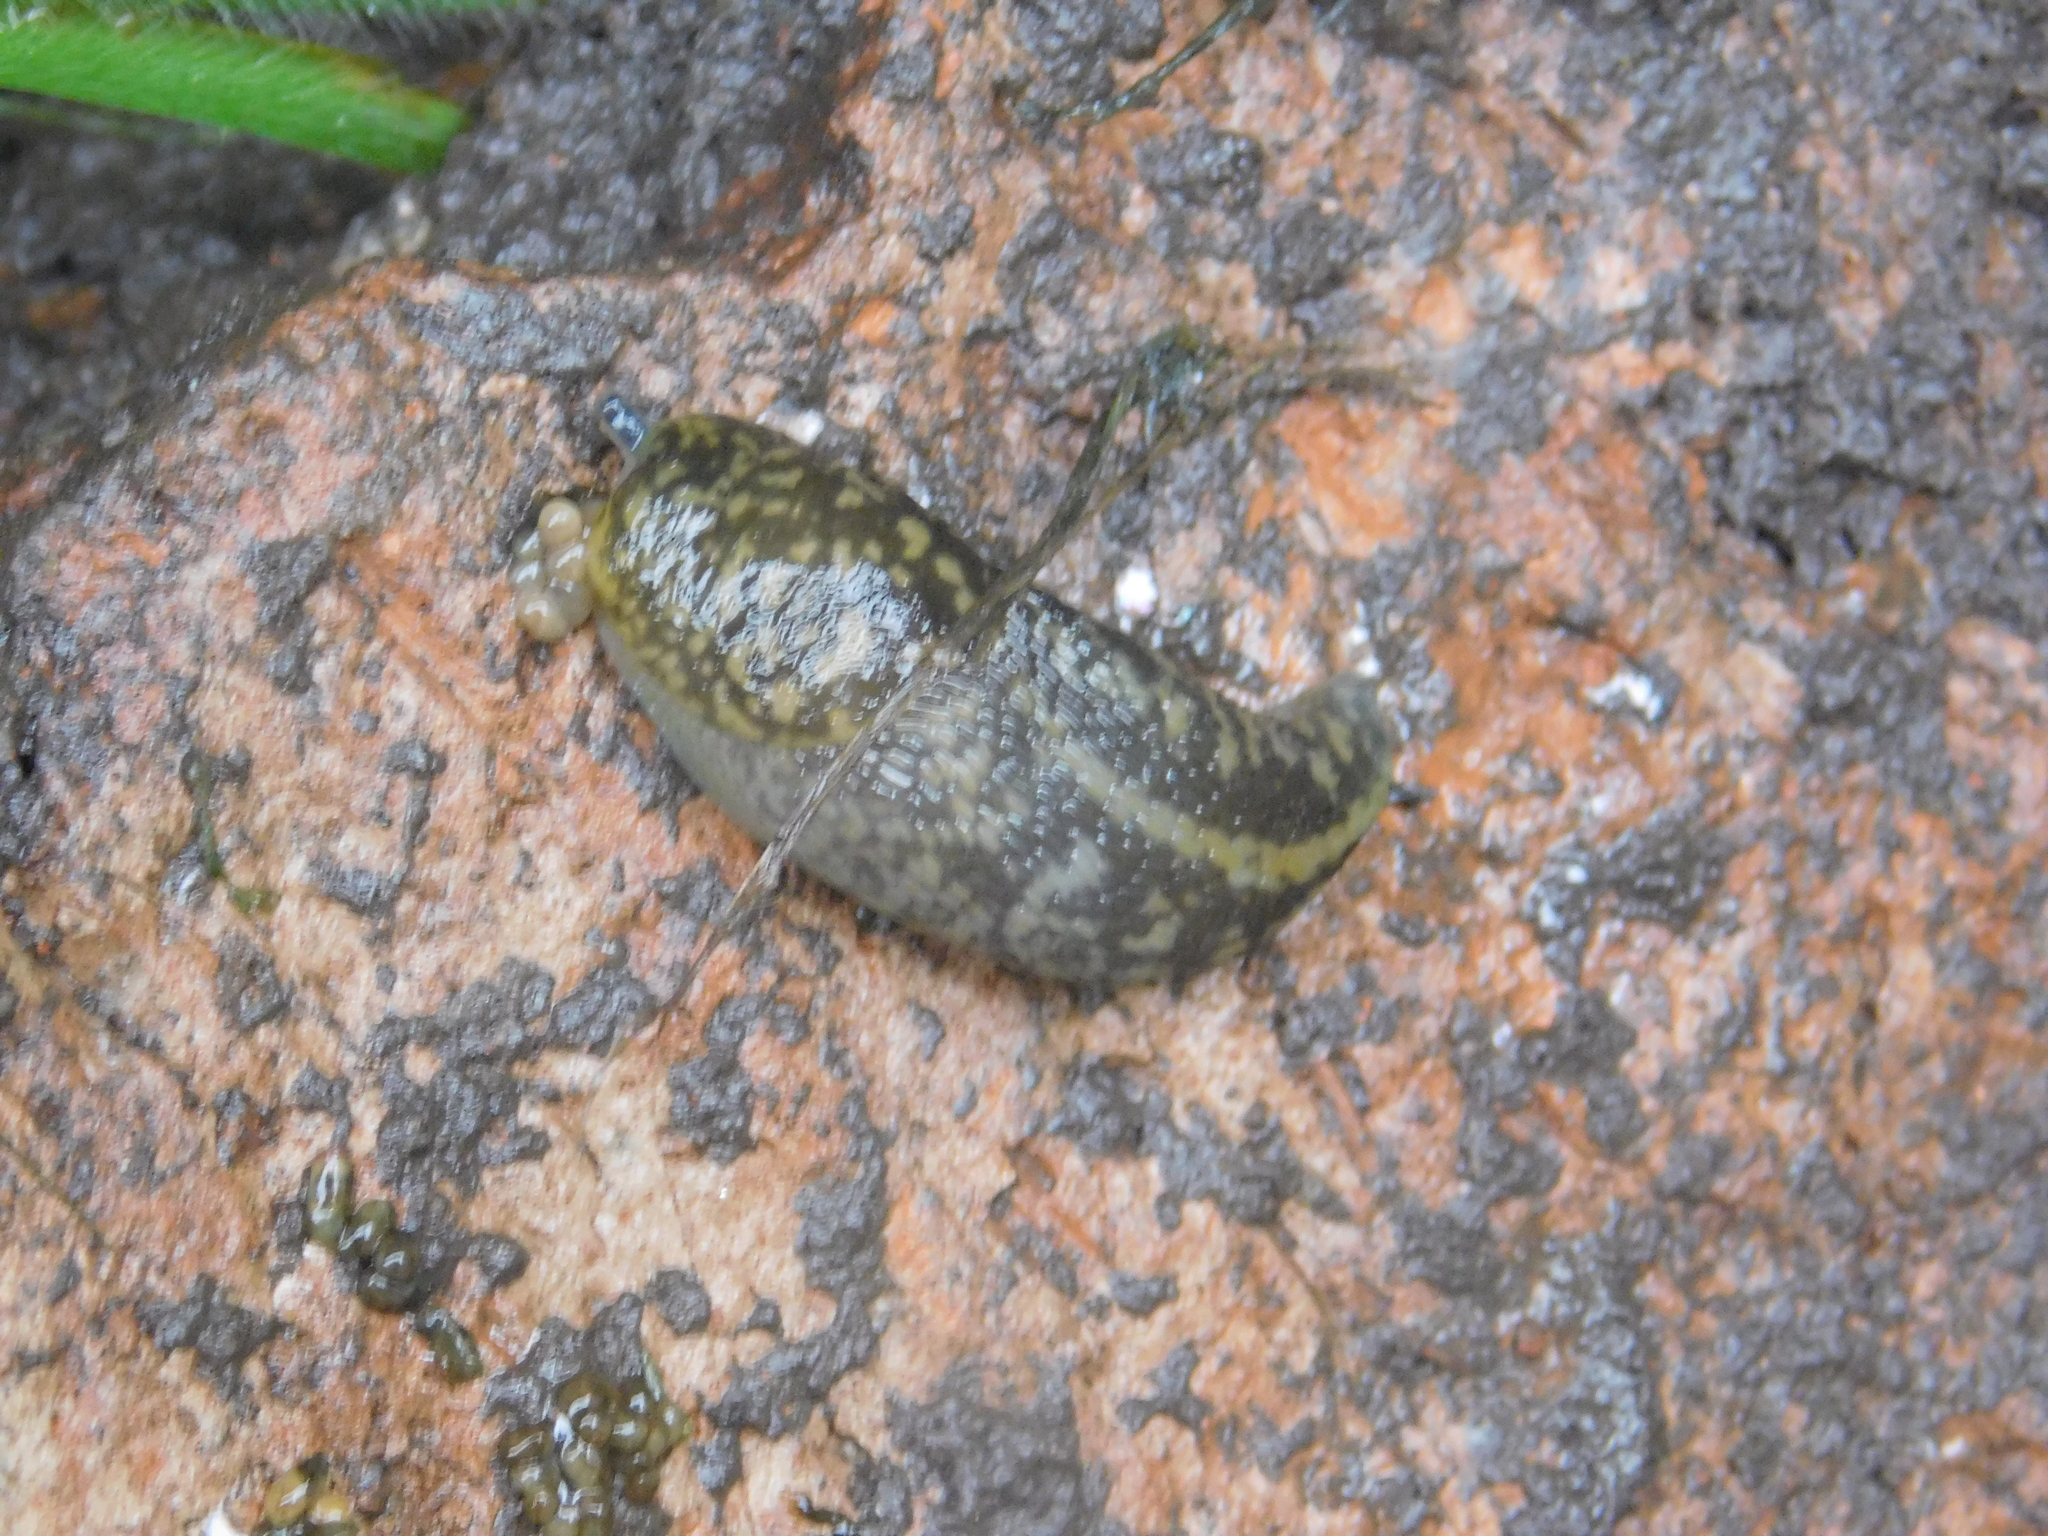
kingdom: Animalia
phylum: Mollusca
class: Gastropoda
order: Stylommatophora
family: Limacidae
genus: Limacus
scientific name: Limacus flavus
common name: Yellow gardenslug
